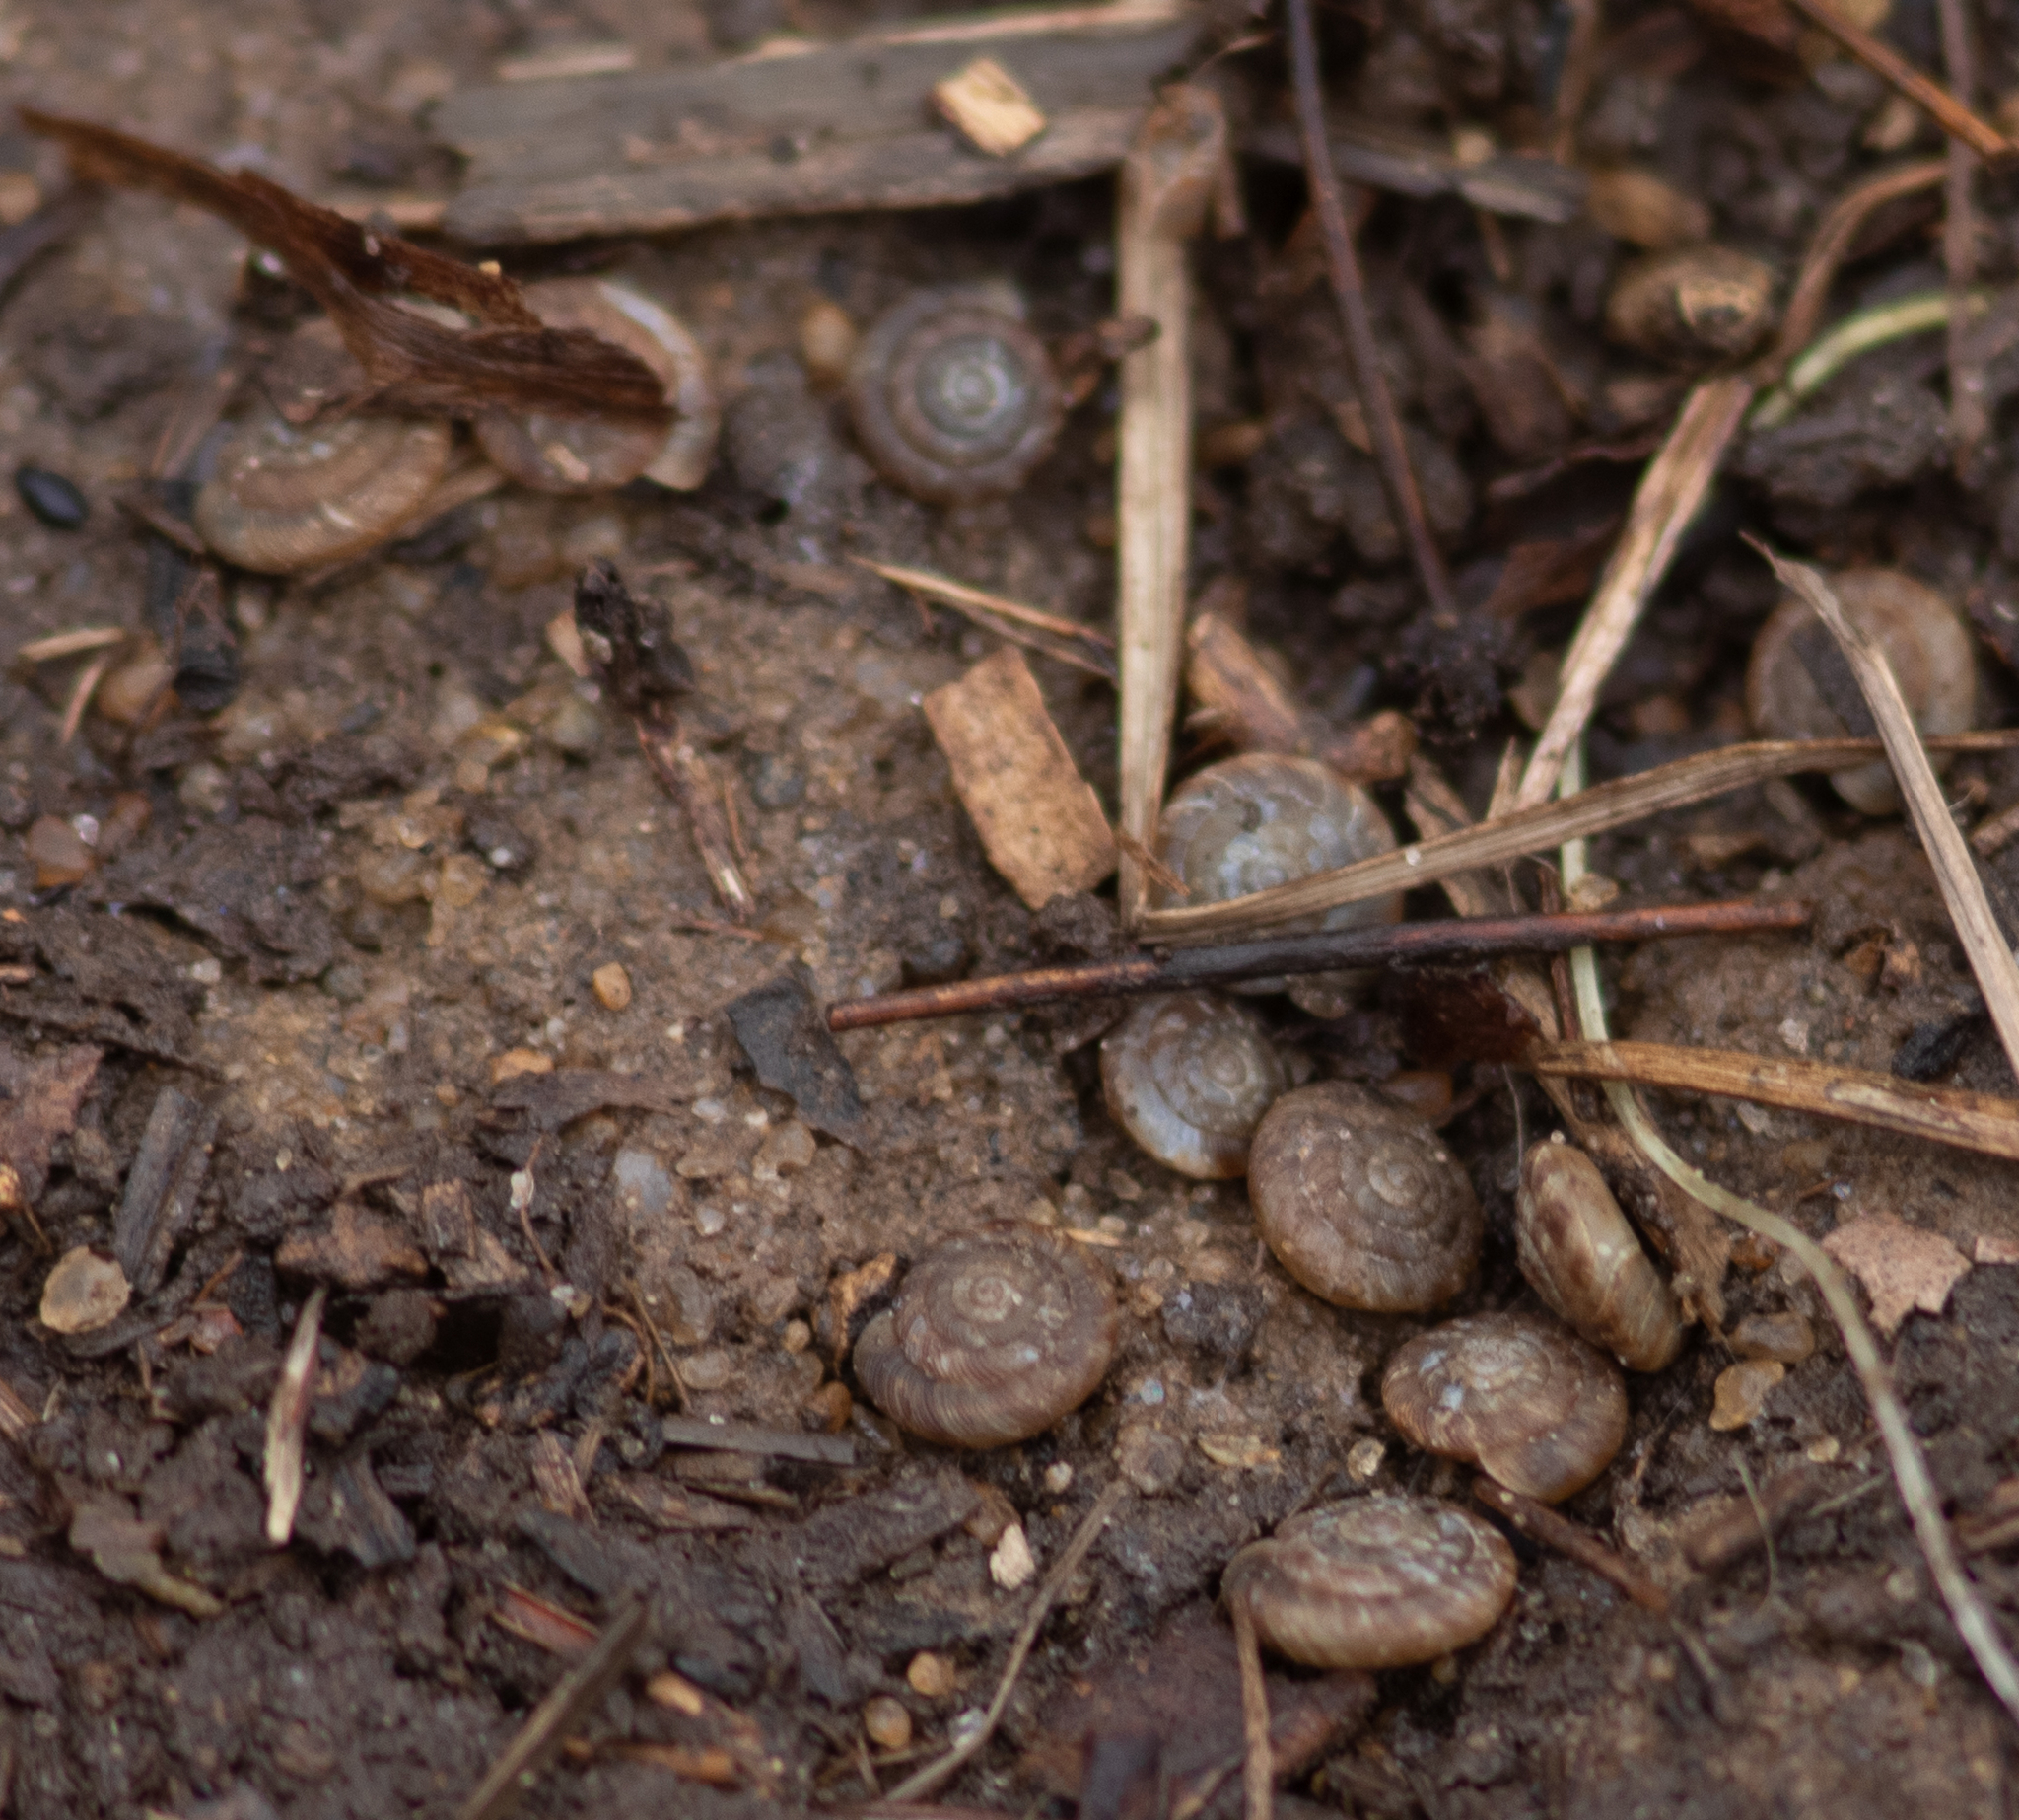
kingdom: Animalia
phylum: Mollusca
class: Gastropoda
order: Stylommatophora
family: Discidae
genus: Discus
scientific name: Discus rotundatus
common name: Rounded snail
